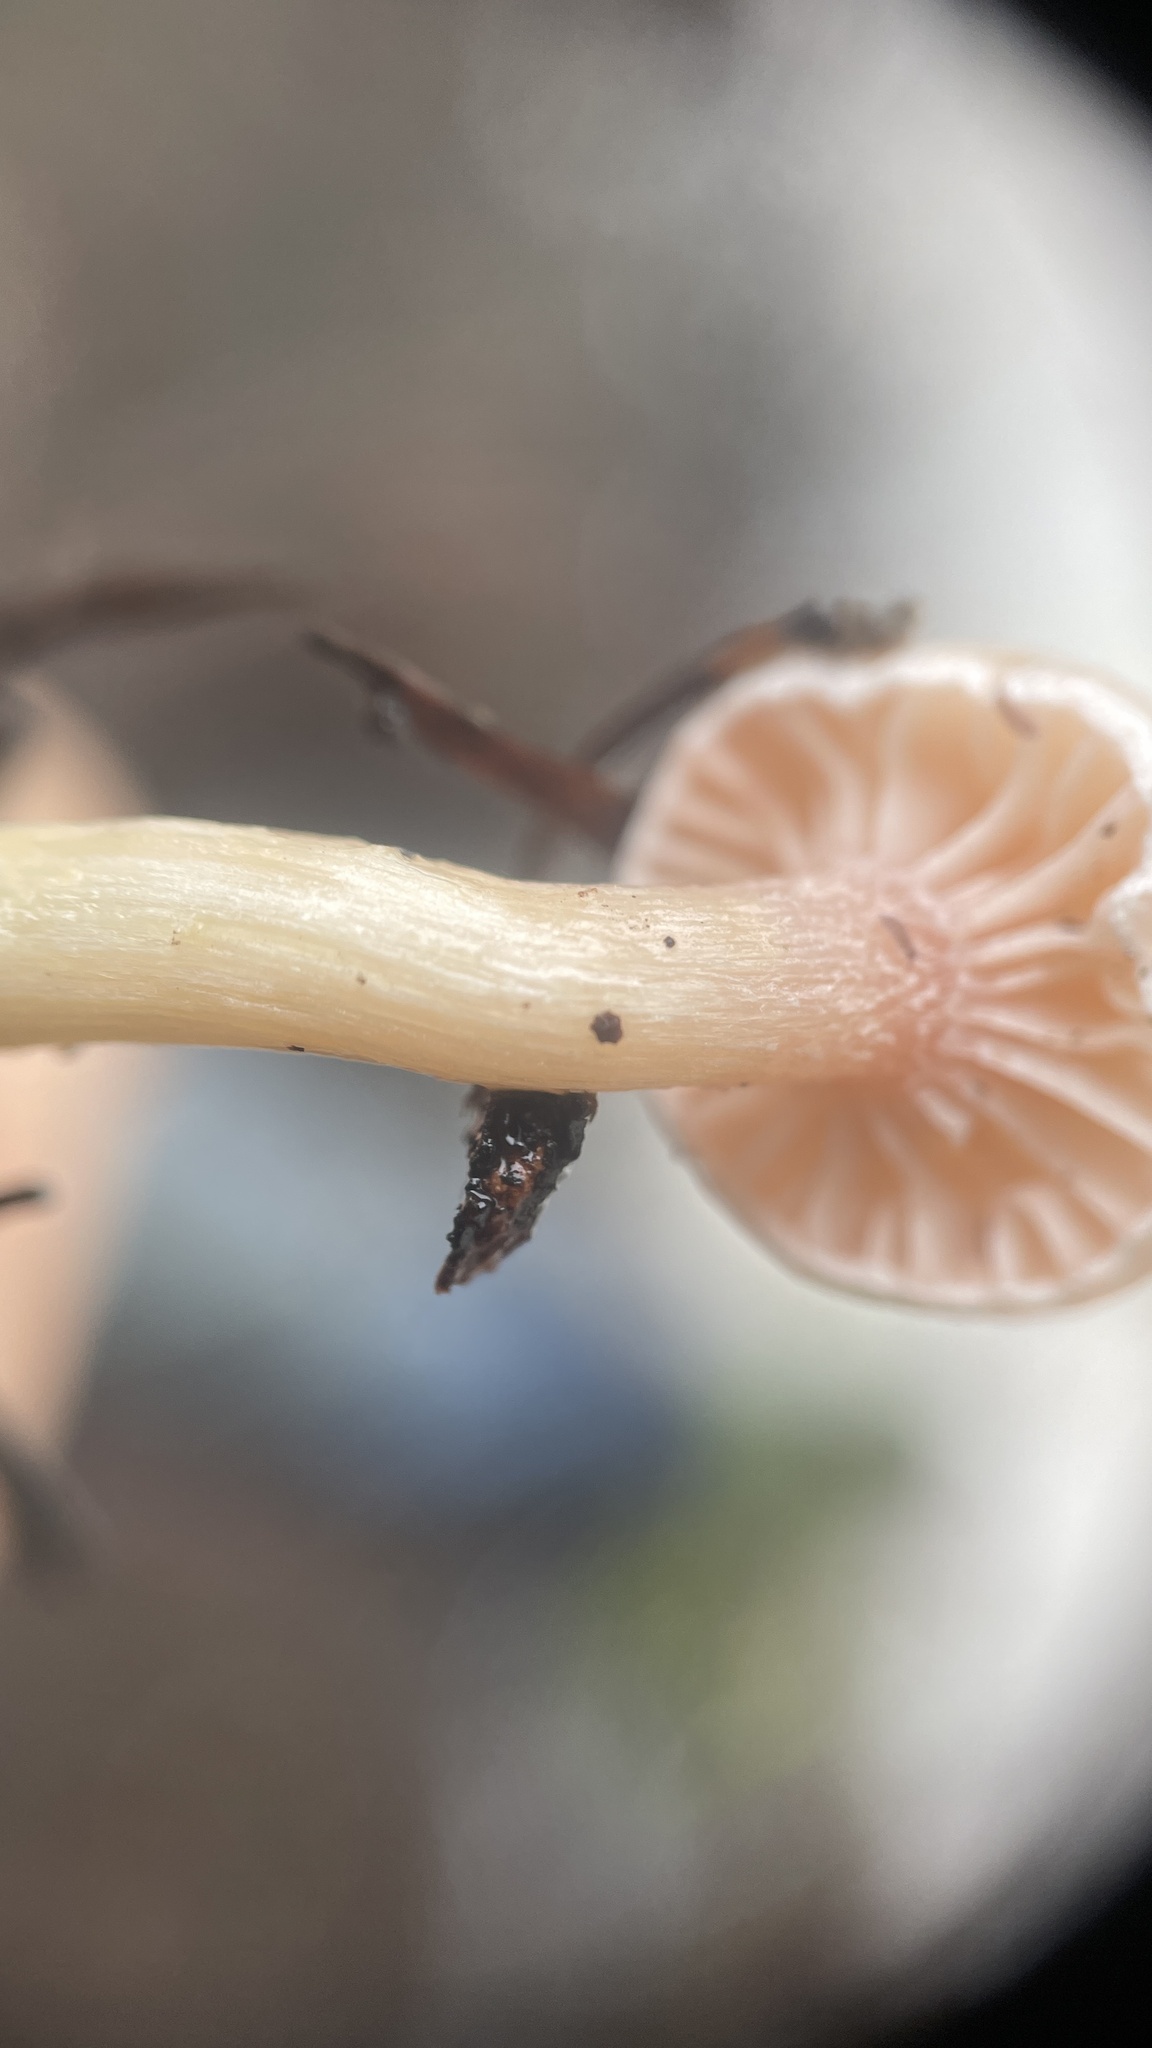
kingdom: Fungi
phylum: Basidiomycota
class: Agaricomycetes
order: Agaricales
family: Hygrophoraceae
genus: Hygrophorus
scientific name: Hygrophorus goetzei
